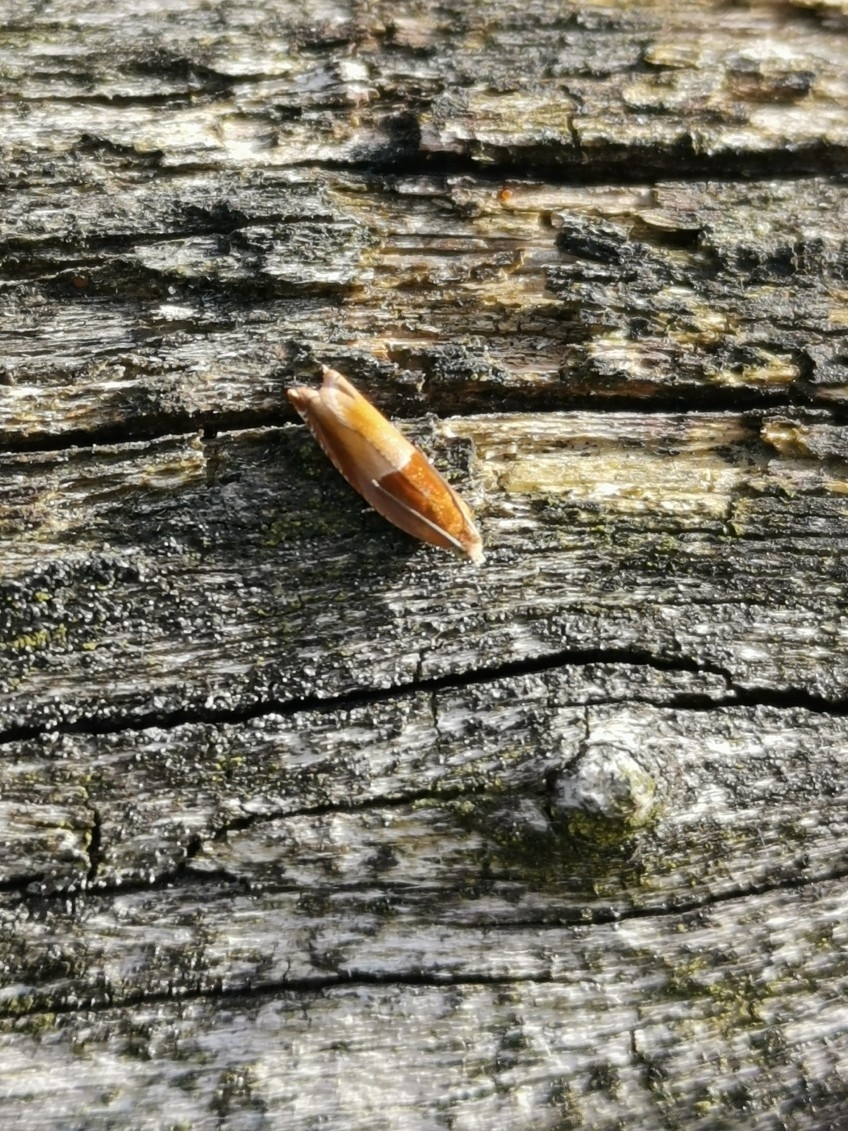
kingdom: Animalia
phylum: Arthropoda
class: Insecta
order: Lepidoptera
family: Tortricidae
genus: Ancylis
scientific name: Ancylis mitterbacheriana
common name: Red roller
